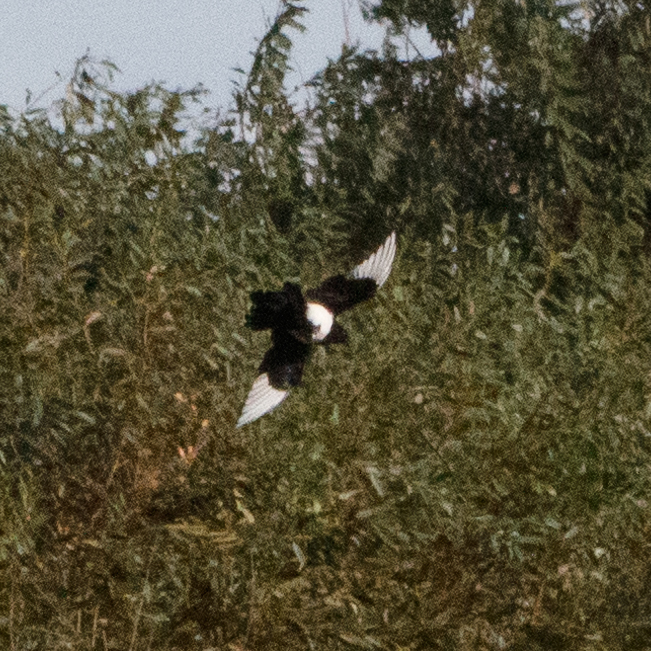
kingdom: Animalia
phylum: Chordata
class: Aves
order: Passeriformes
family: Corvidae
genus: Pica
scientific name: Pica pica
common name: Eurasian magpie
